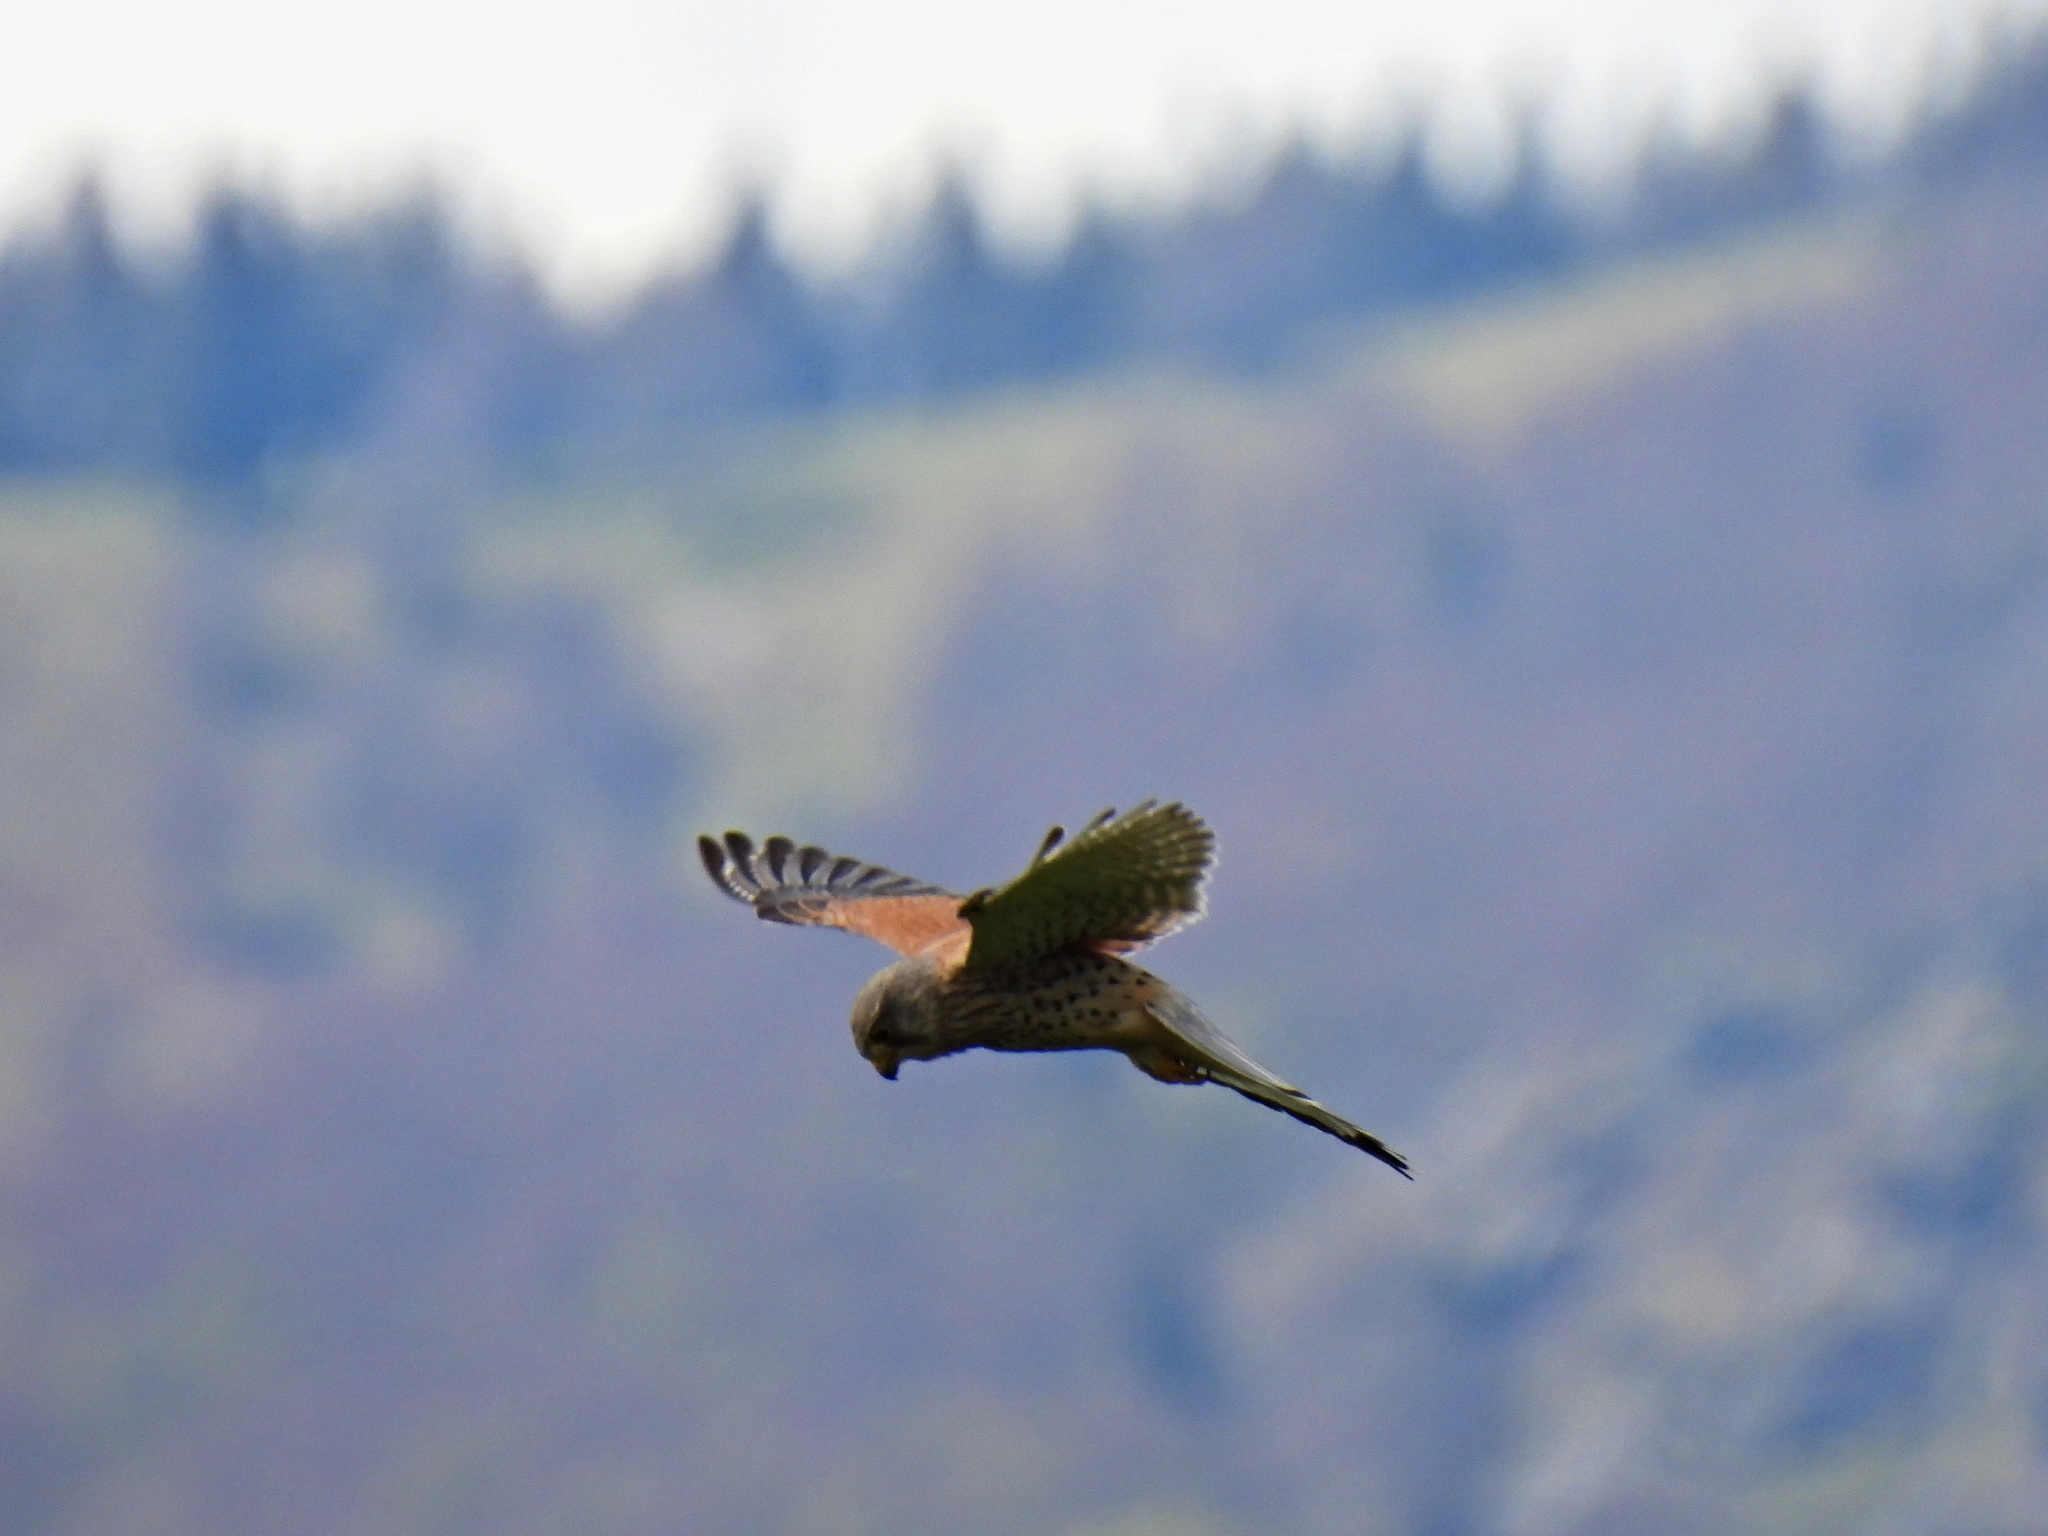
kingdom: Animalia
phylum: Chordata
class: Aves
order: Falconiformes
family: Falconidae
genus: Falco
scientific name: Falco tinnunculus
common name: Common kestrel
